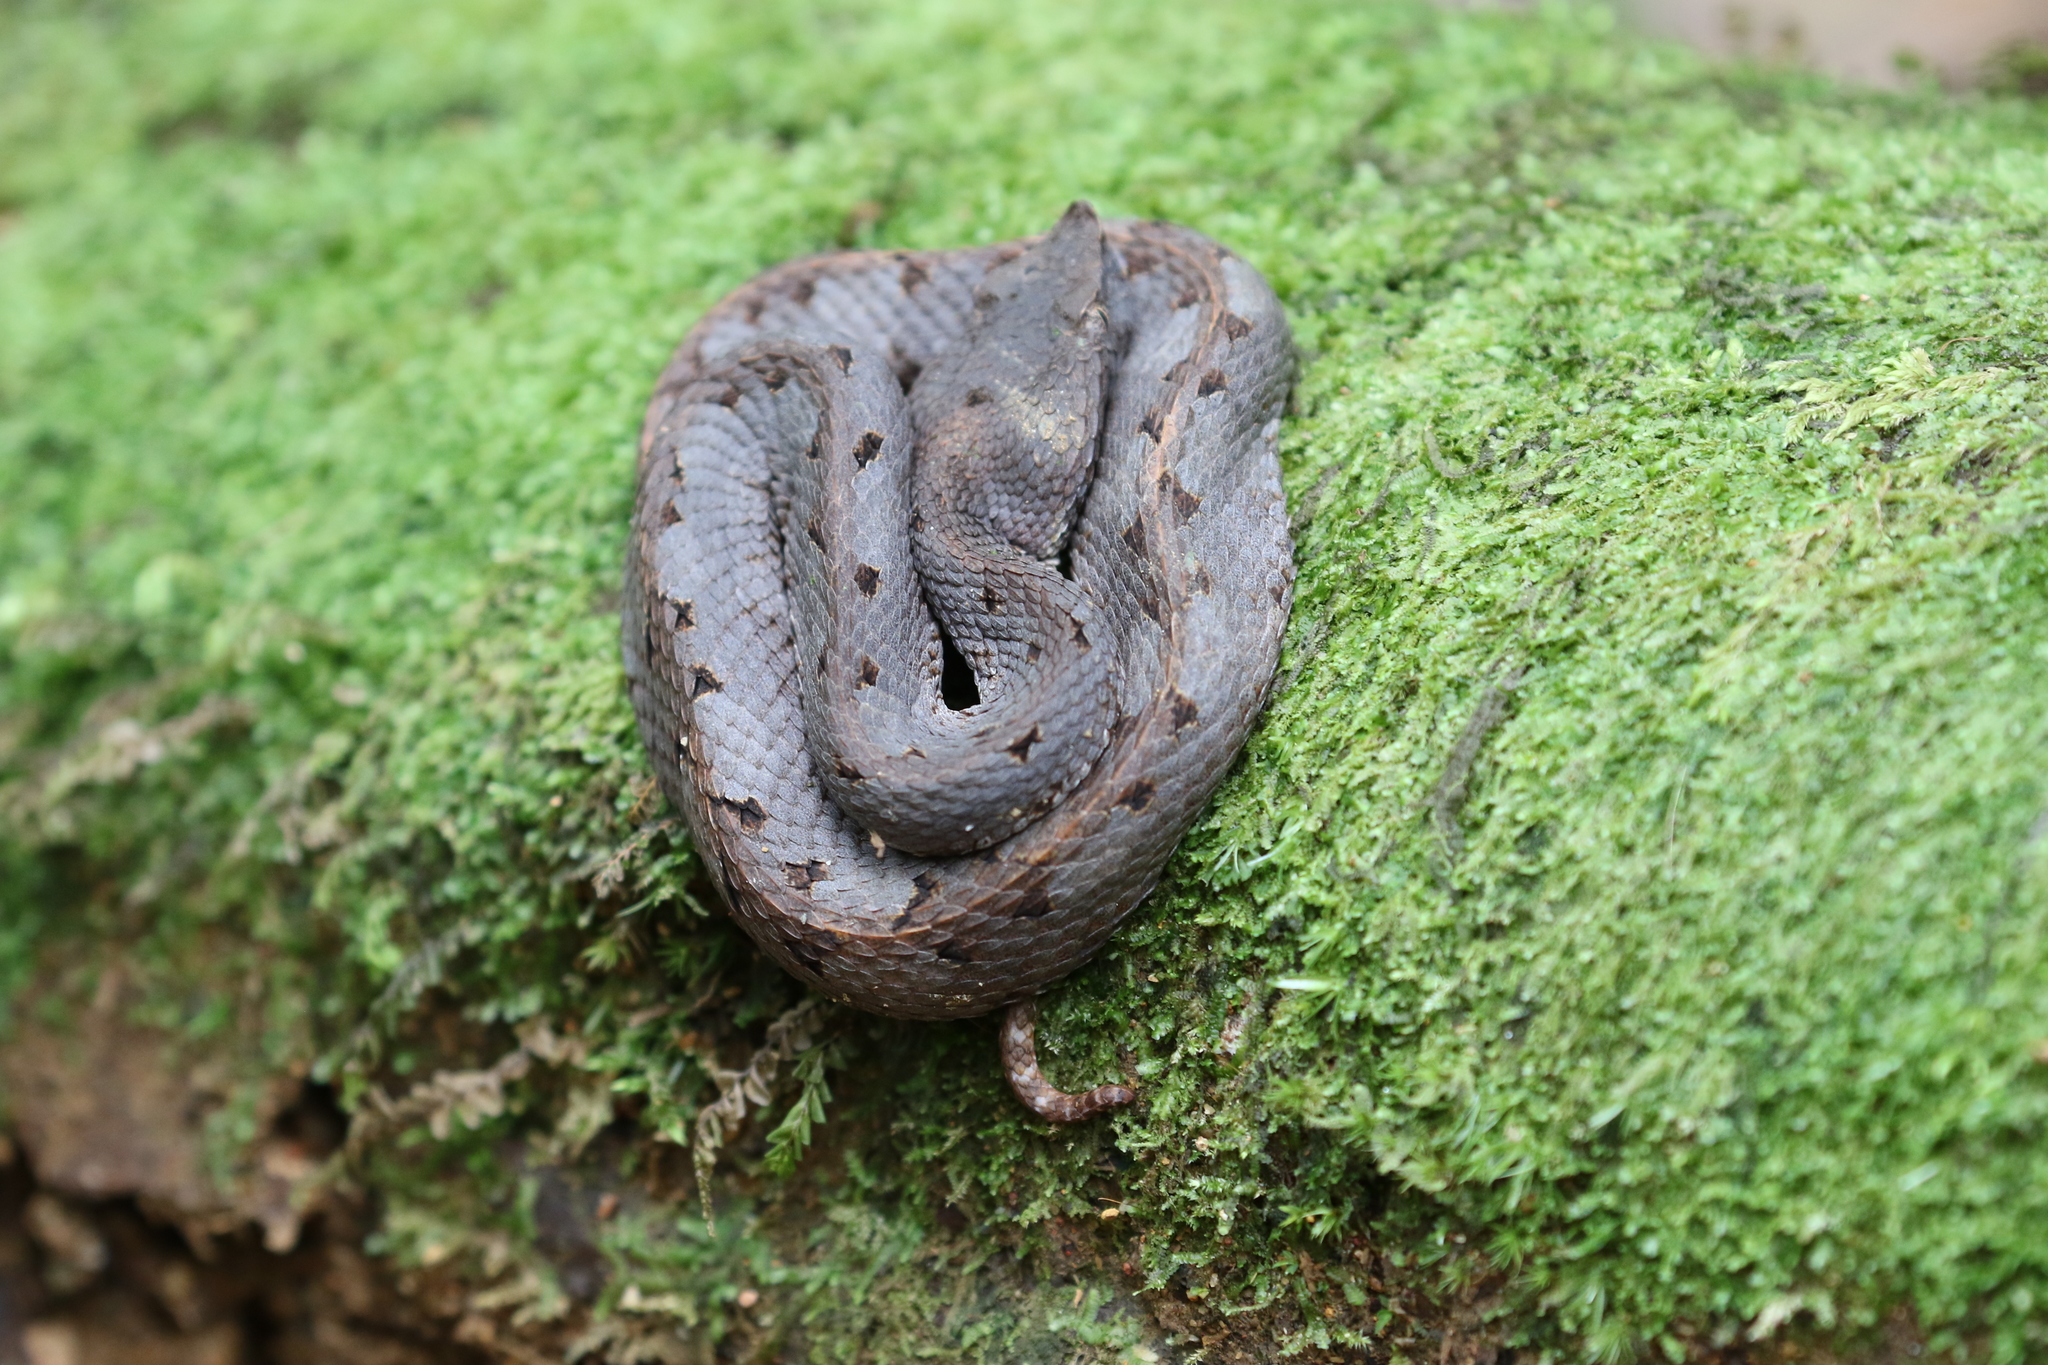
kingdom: Animalia
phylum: Chordata
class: Squamata
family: Viperidae
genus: Porthidium
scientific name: Porthidium nasutum
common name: Hognosed pit viper
